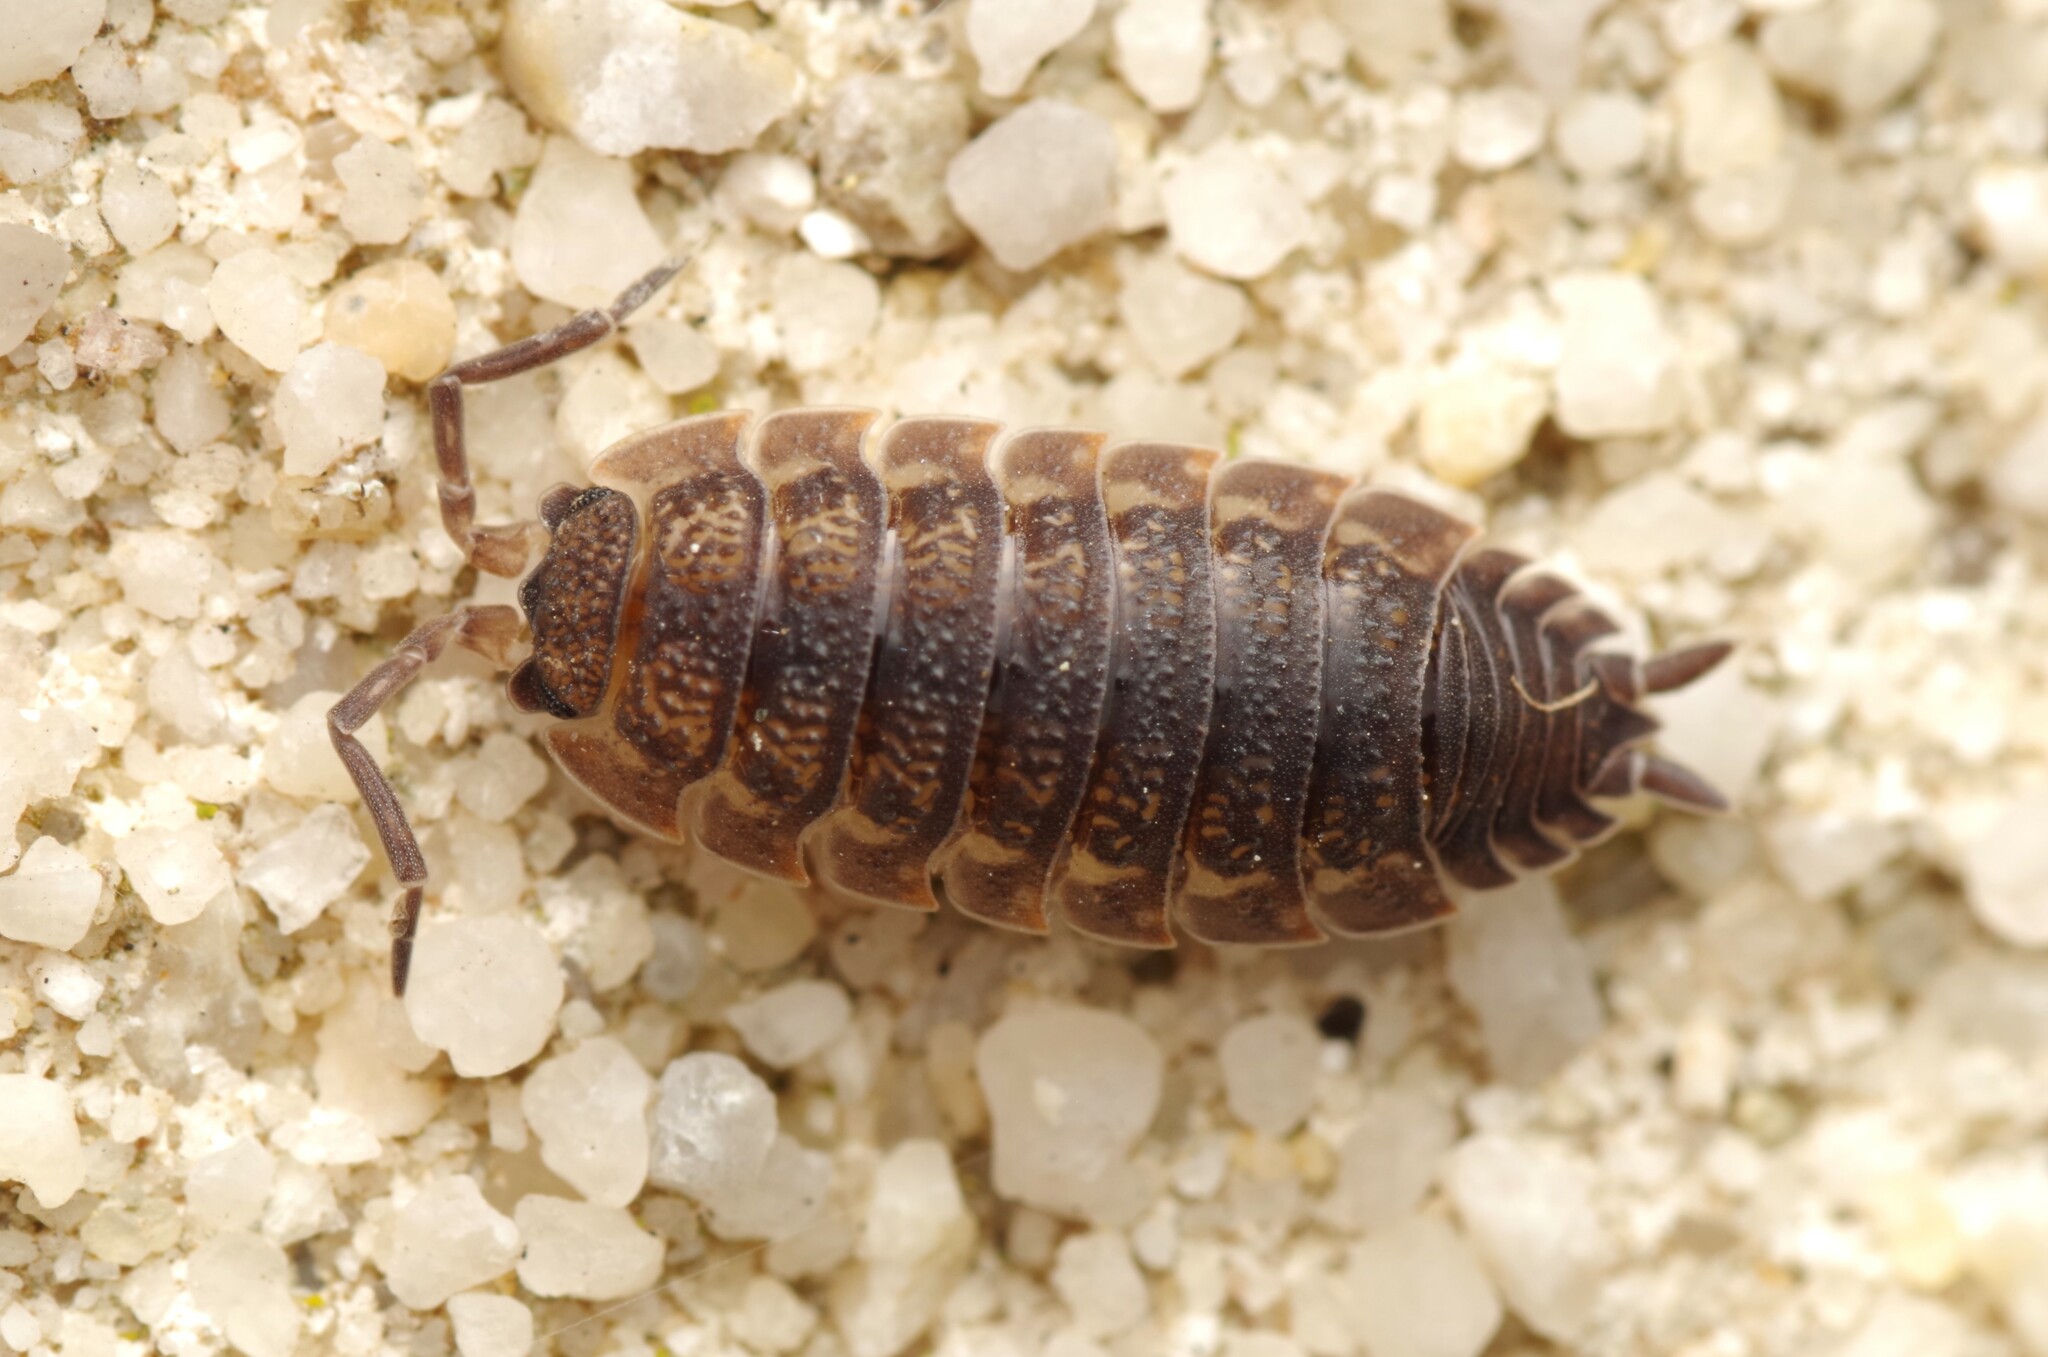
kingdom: Animalia
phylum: Arthropoda
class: Malacostraca
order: Isopoda
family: Porcellionidae
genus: Porcellio
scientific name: Porcellio scaber
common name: Common rough woodlouse
